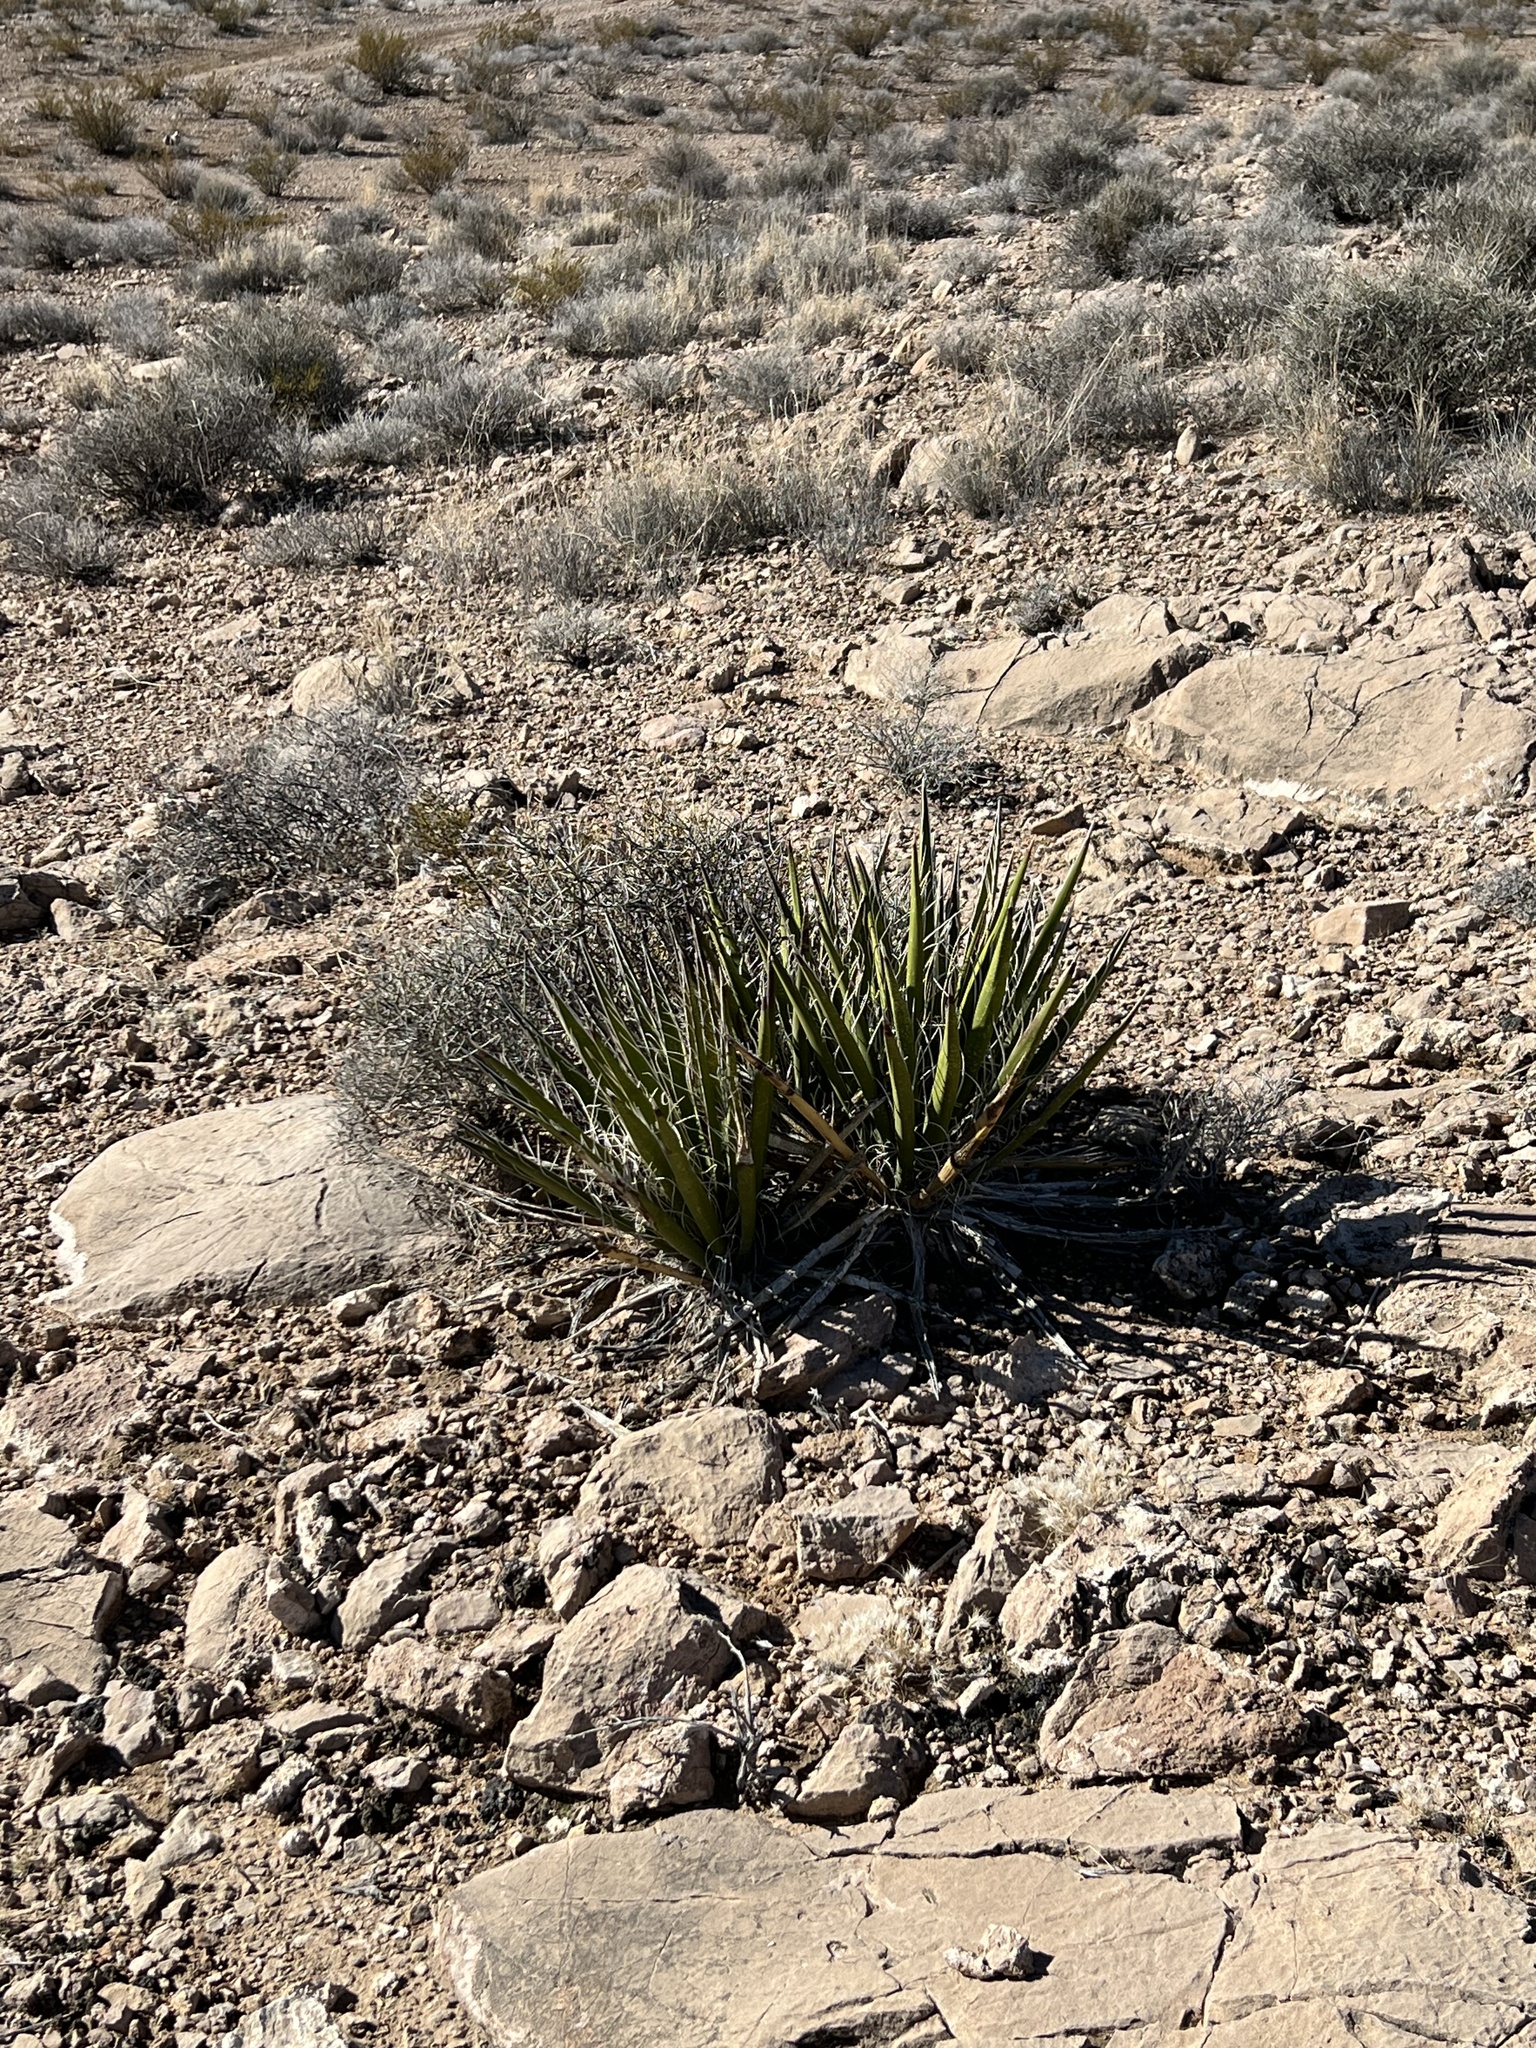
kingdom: Plantae
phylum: Tracheophyta
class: Liliopsida
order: Asparagales
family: Asparagaceae
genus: Yucca
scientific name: Yucca schidigera
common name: Mojave yucca
